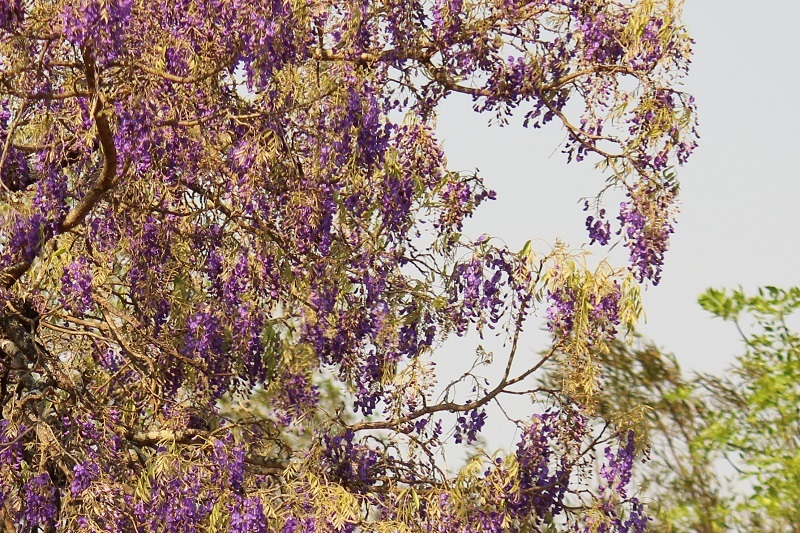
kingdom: Plantae
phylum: Tracheophyta
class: Magnoliopsida
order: Fabales
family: Fabaceae
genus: Bolusanthus
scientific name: Bolusanthus speciosus
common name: Tree wisteria
